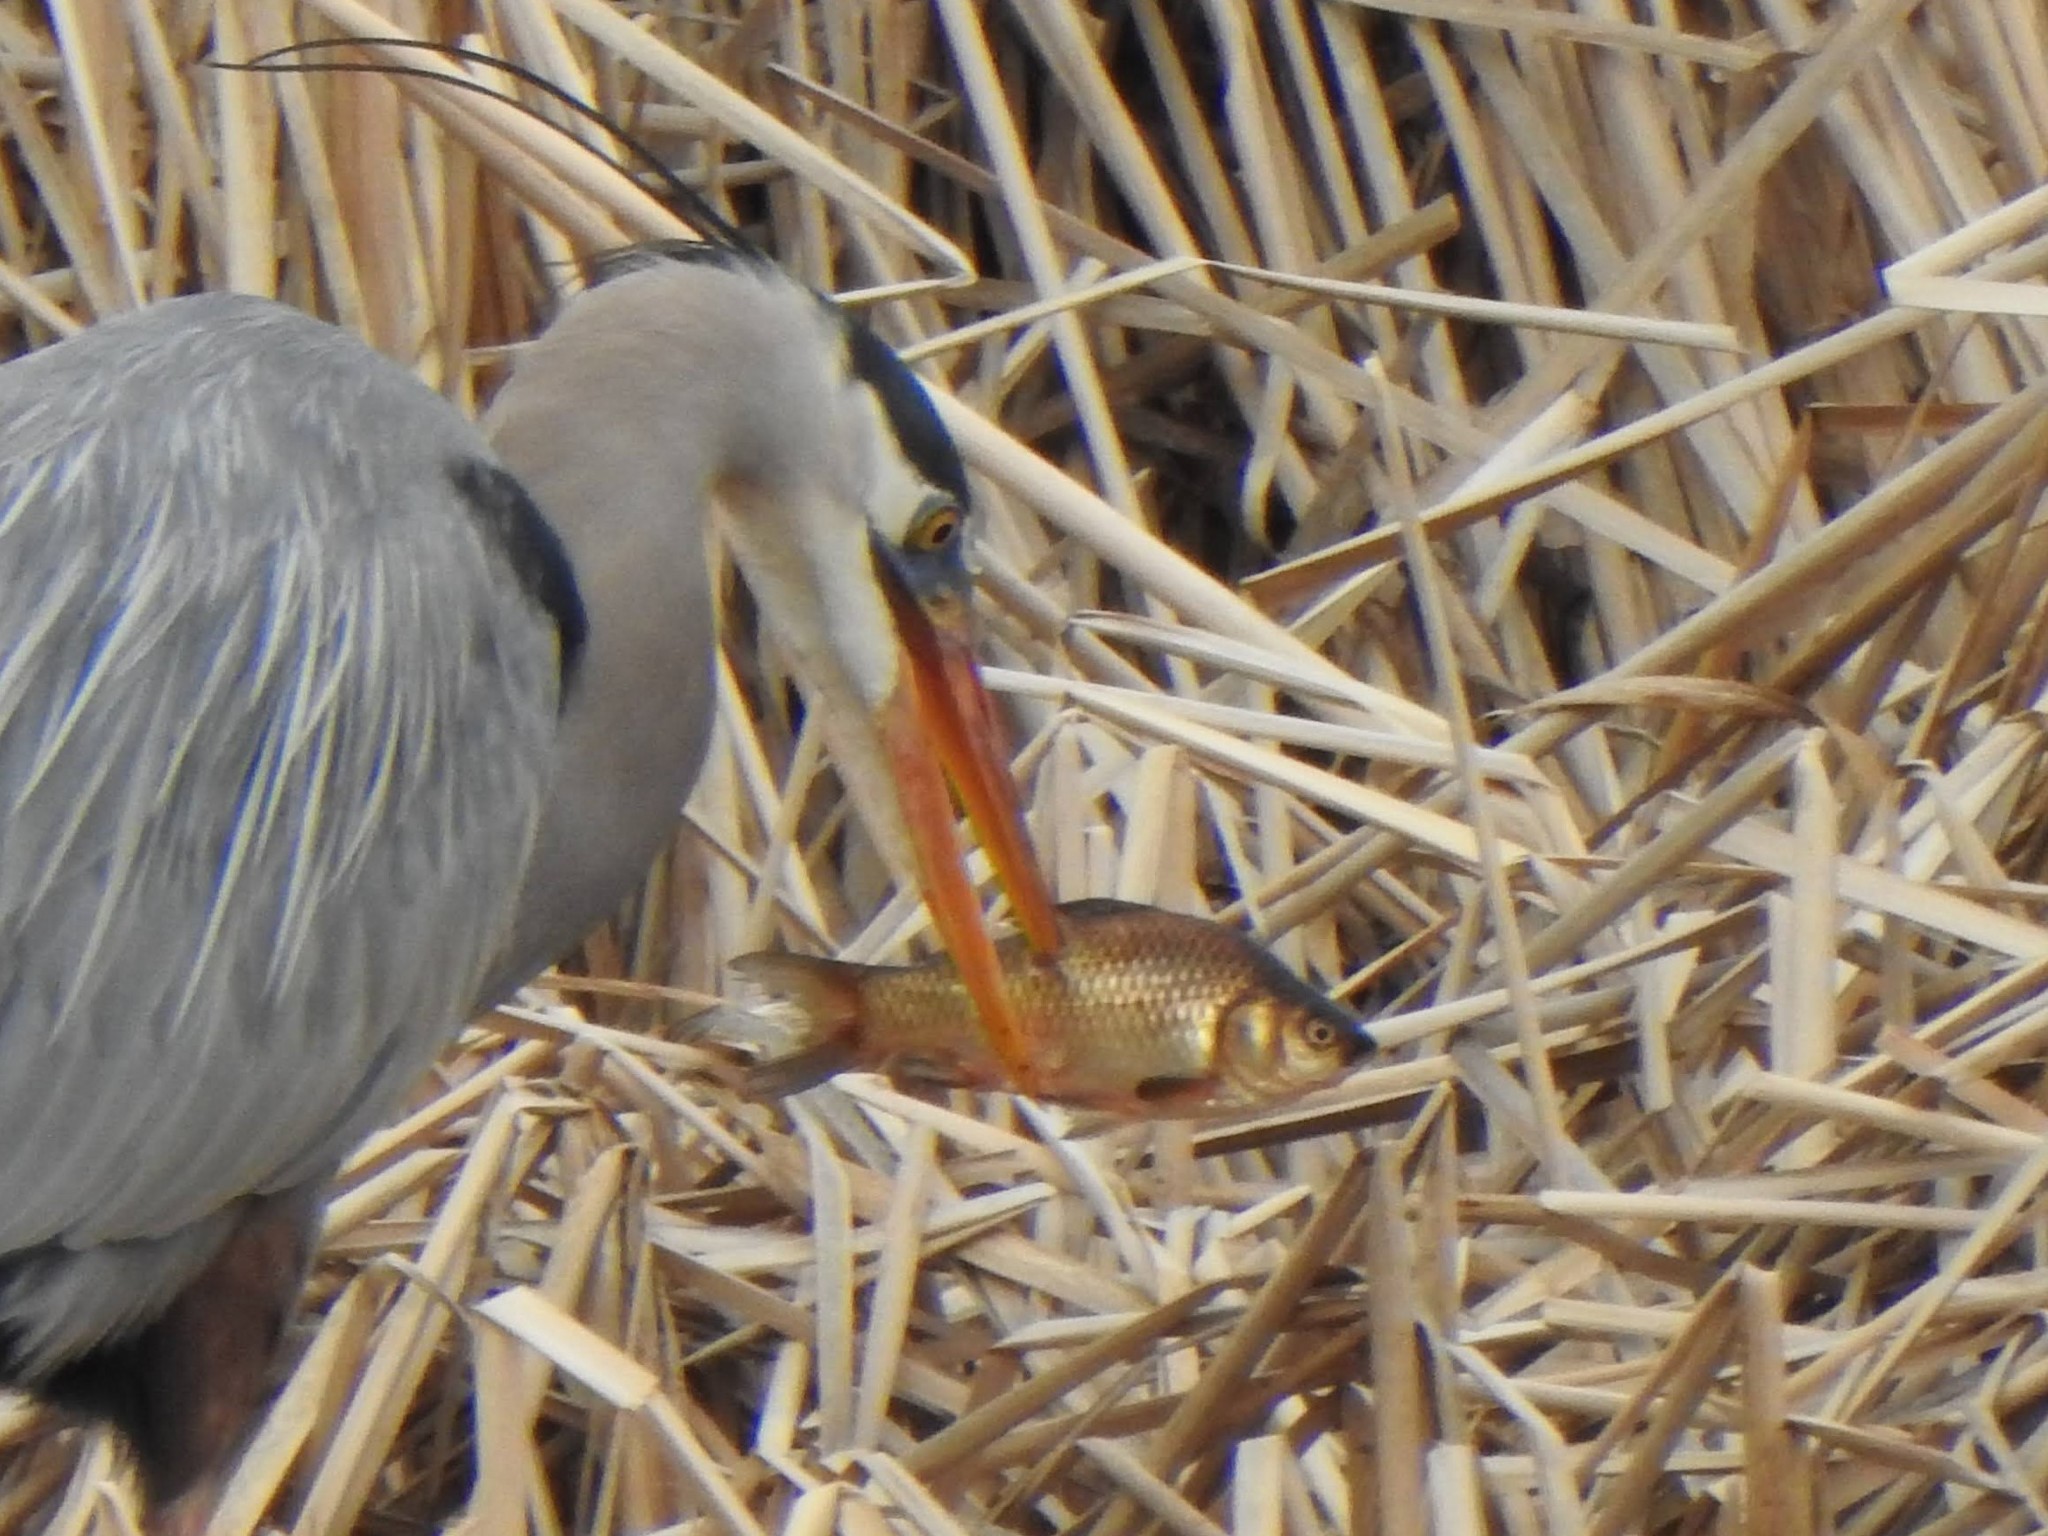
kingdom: Animalia
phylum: Chordata
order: Cypriniformes
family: Cyprinidae
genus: Carassius
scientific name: Carassius auratus
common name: Goldfish
